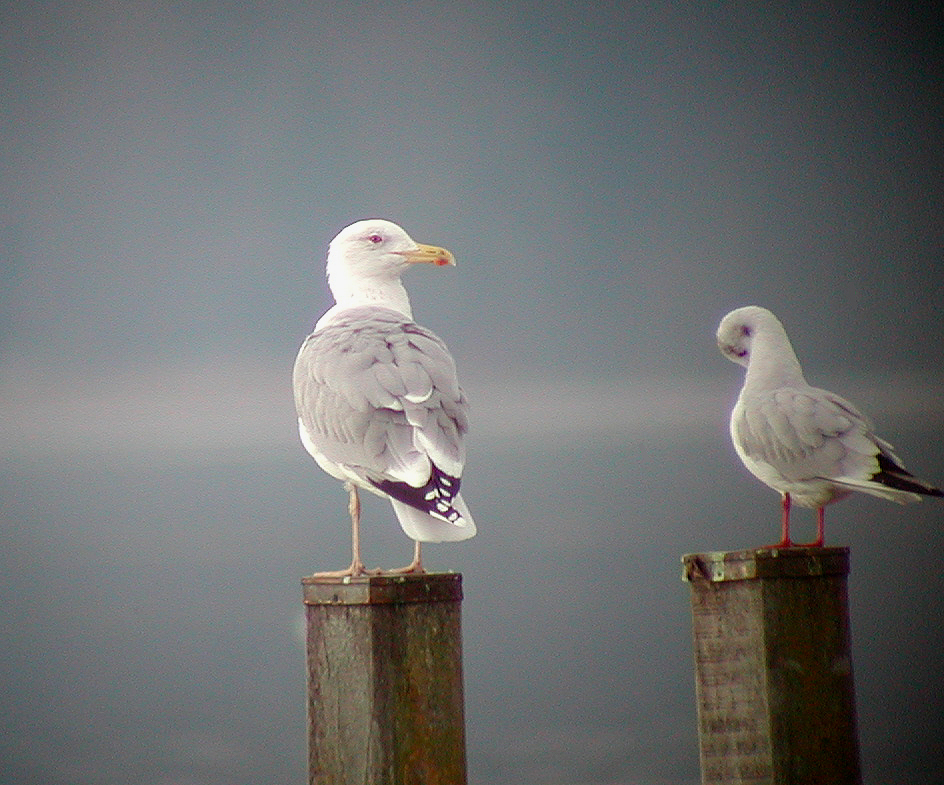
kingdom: Animalia
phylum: Chordata
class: Aves
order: Charadriiformes
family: Laridae
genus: Larus
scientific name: Larus michahellis
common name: Yellow-legged gull
